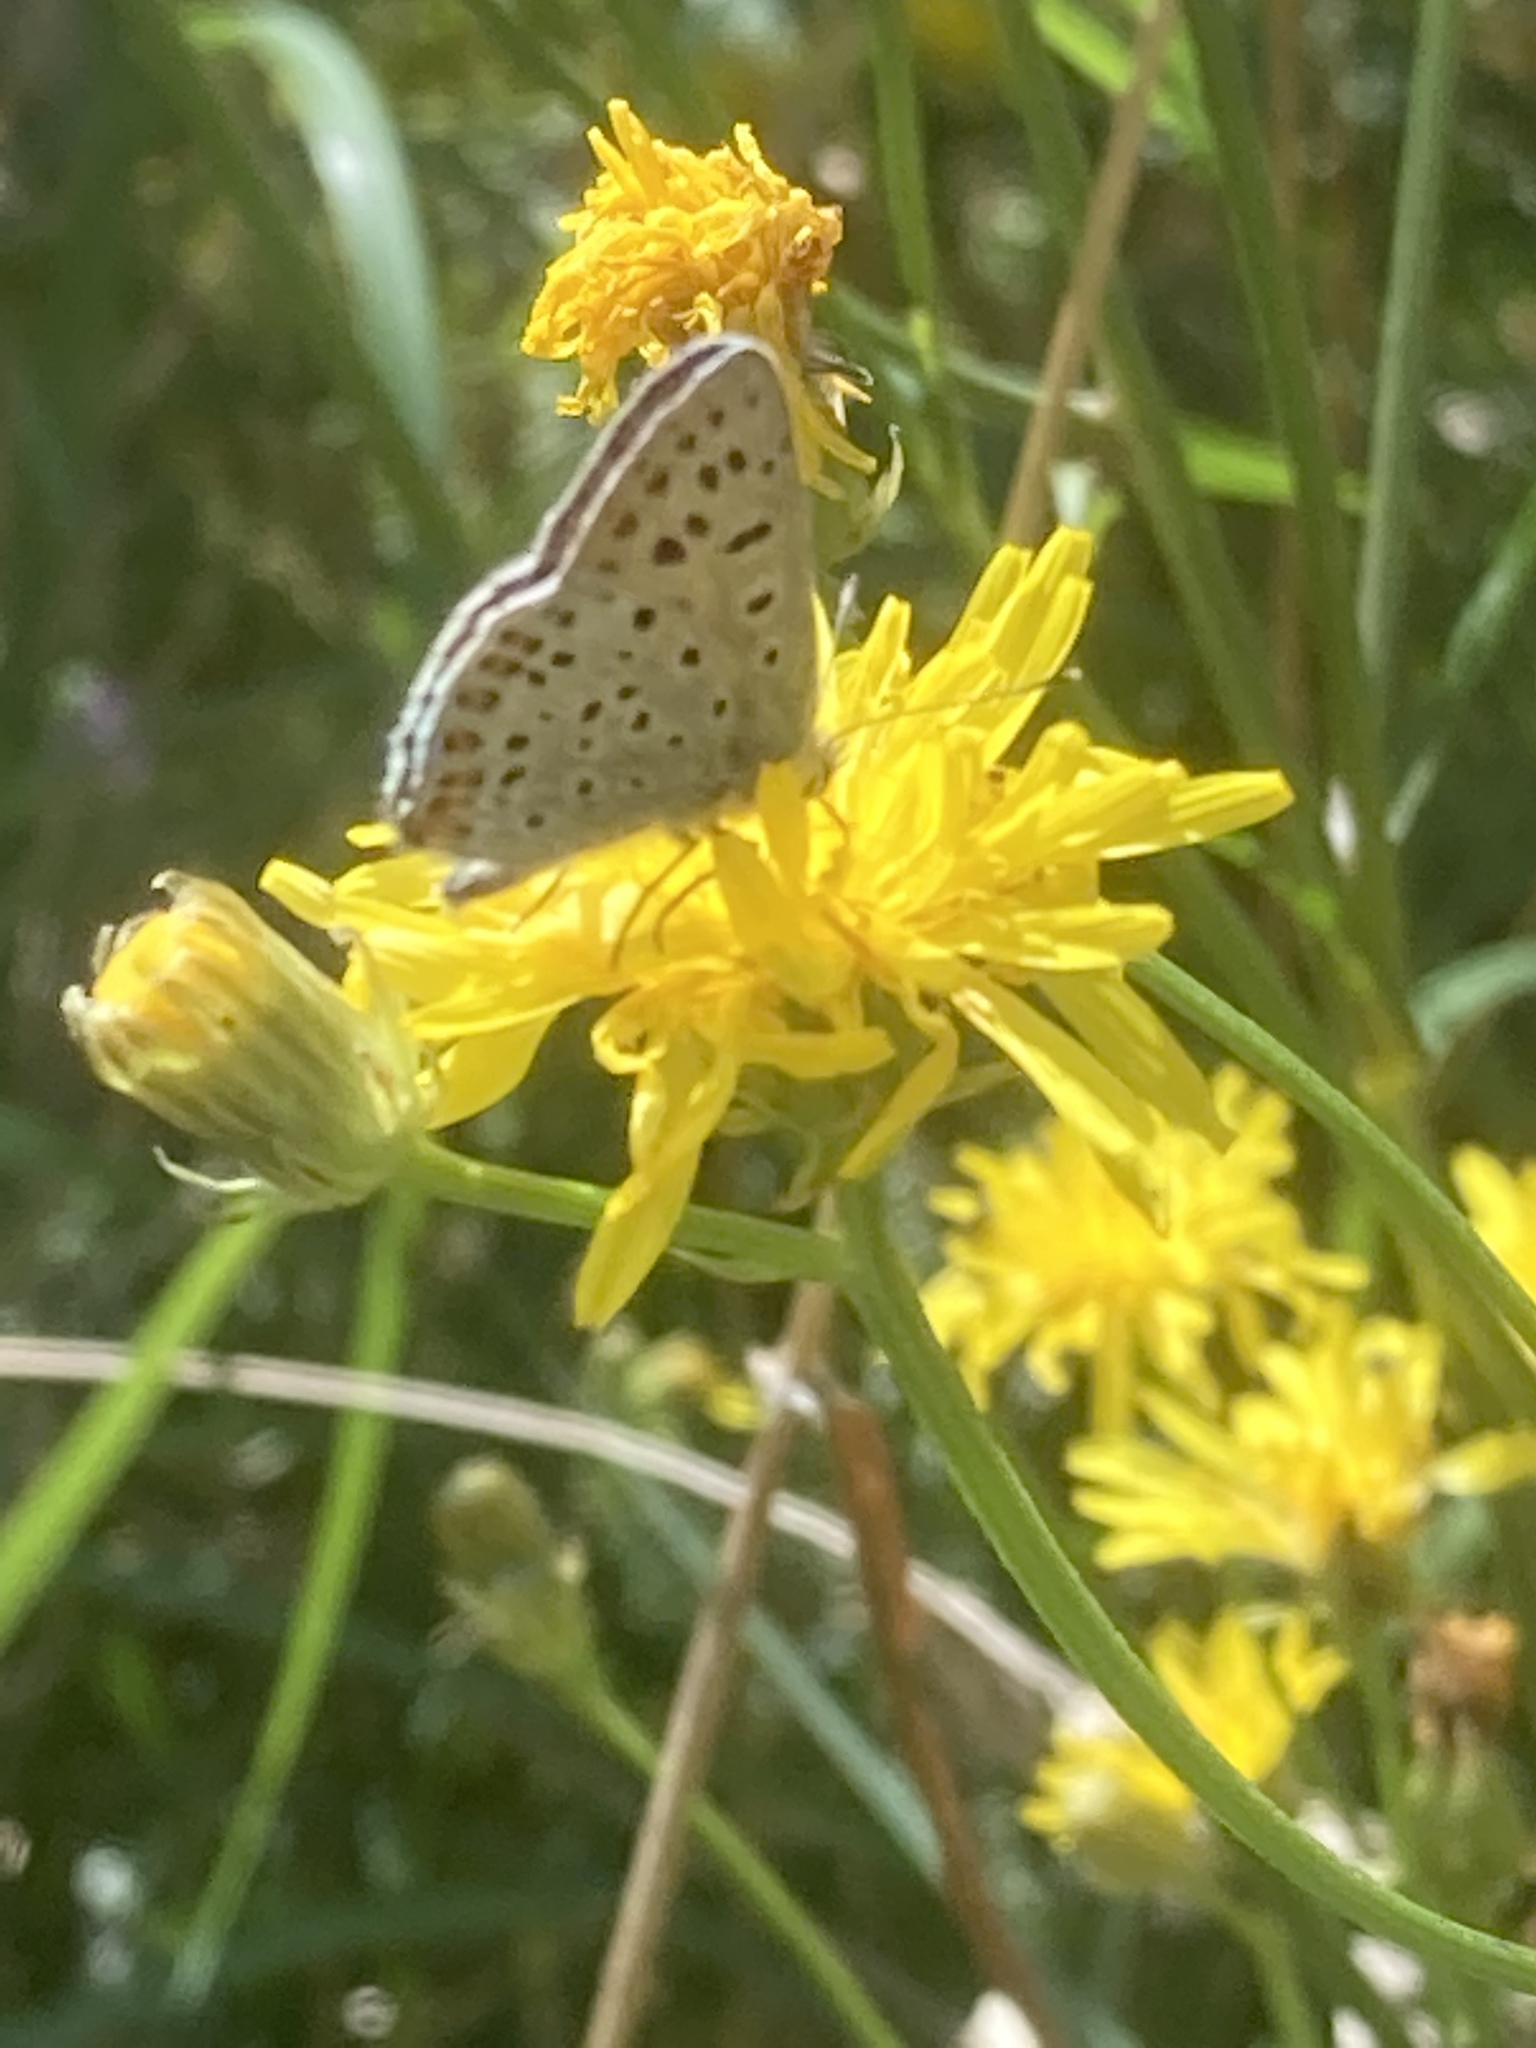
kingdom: Animalia
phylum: Arthropoda
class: Insecta
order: Lepidoptera
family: Lycaenidae
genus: Loweia
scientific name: Loweia tityrus
